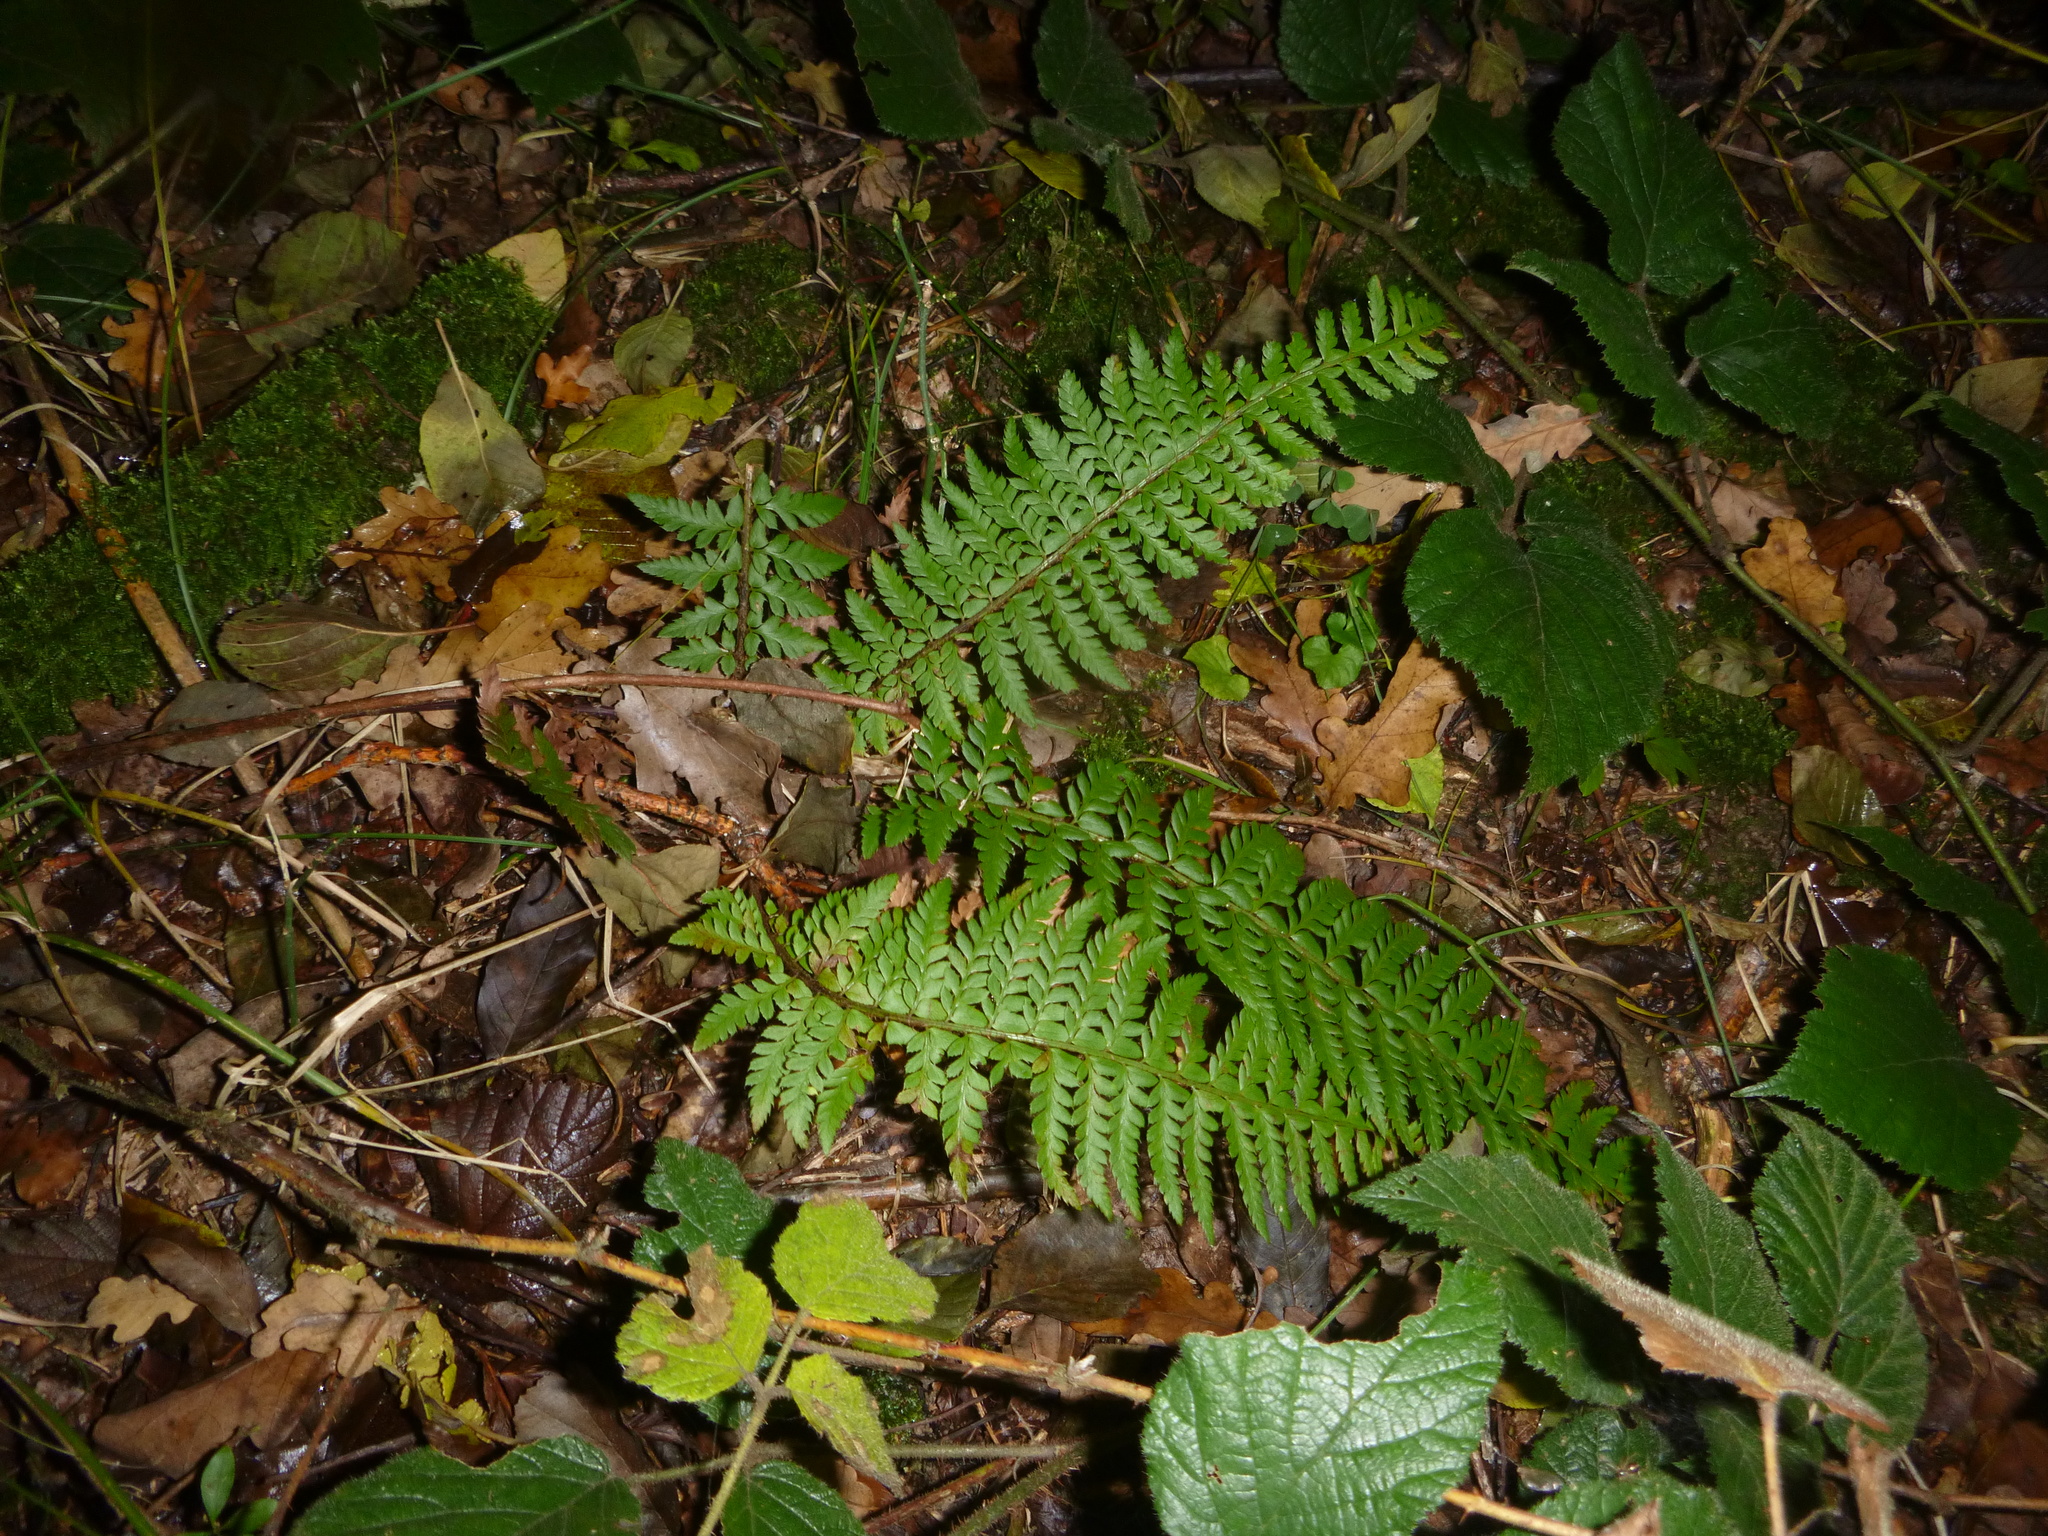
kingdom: Plantae
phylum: Tracheophyta
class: Polypodiopsida
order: Polypodiales
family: Dryopteridaceae
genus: Polystichum
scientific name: Polystichum aculeatum
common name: Hard shield-fern
